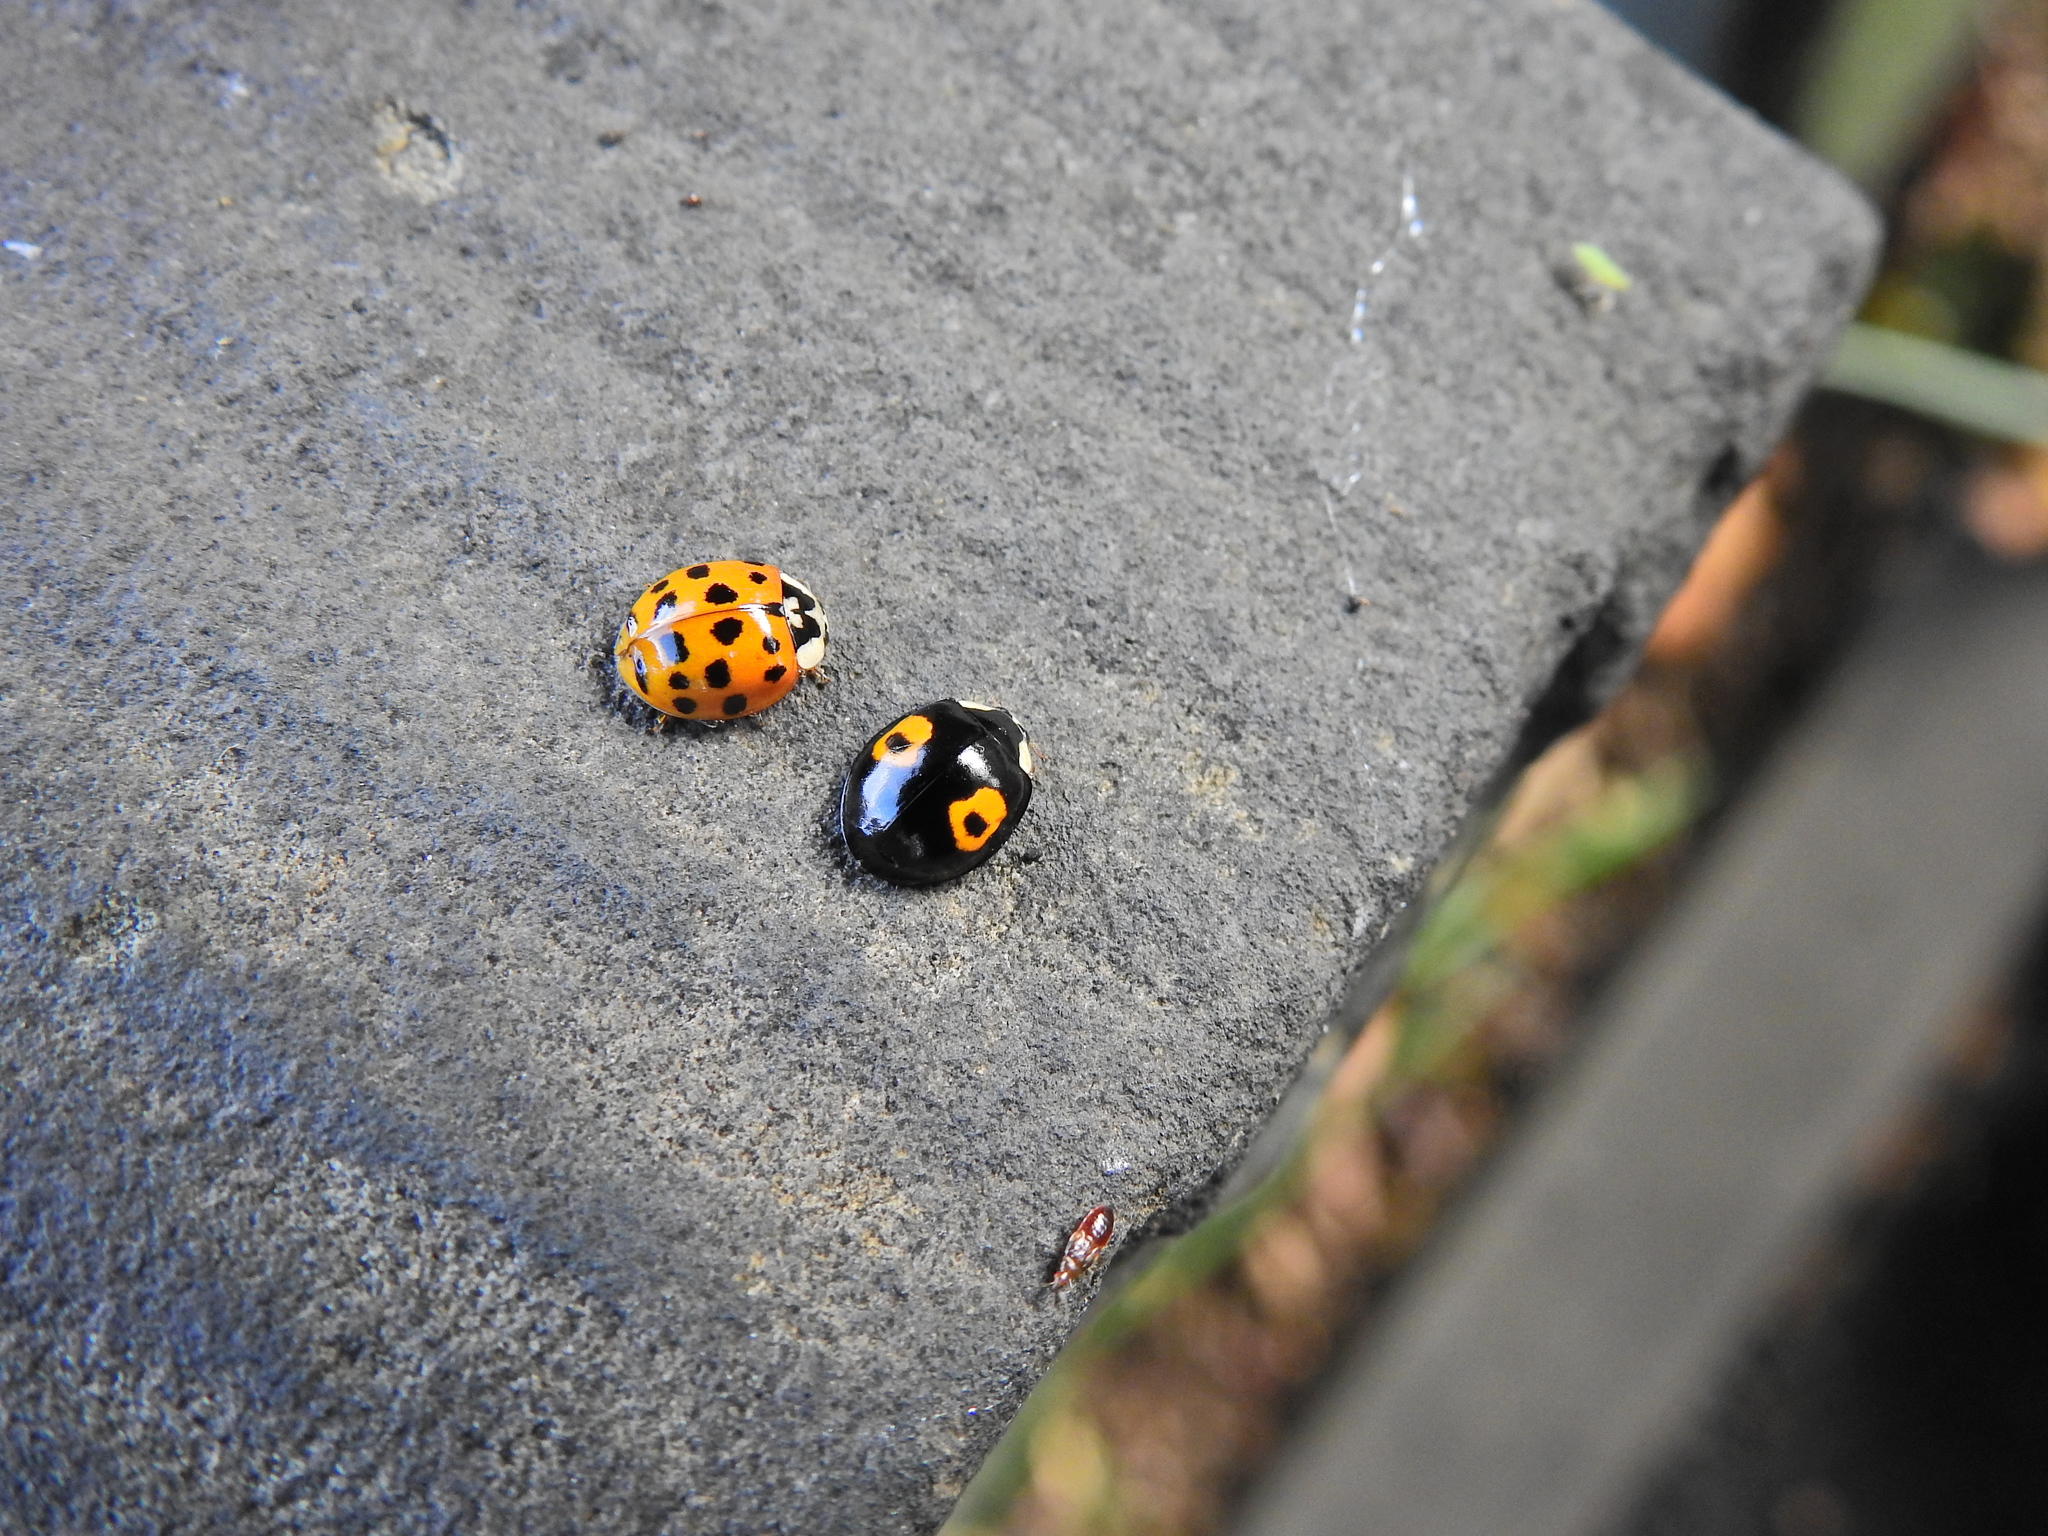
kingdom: Animalia
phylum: Arthropoda
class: Insecta
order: Coleoptera
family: Coccinellidae
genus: Harmonia
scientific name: Harmonia axyridis
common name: Harlequin ladybird
